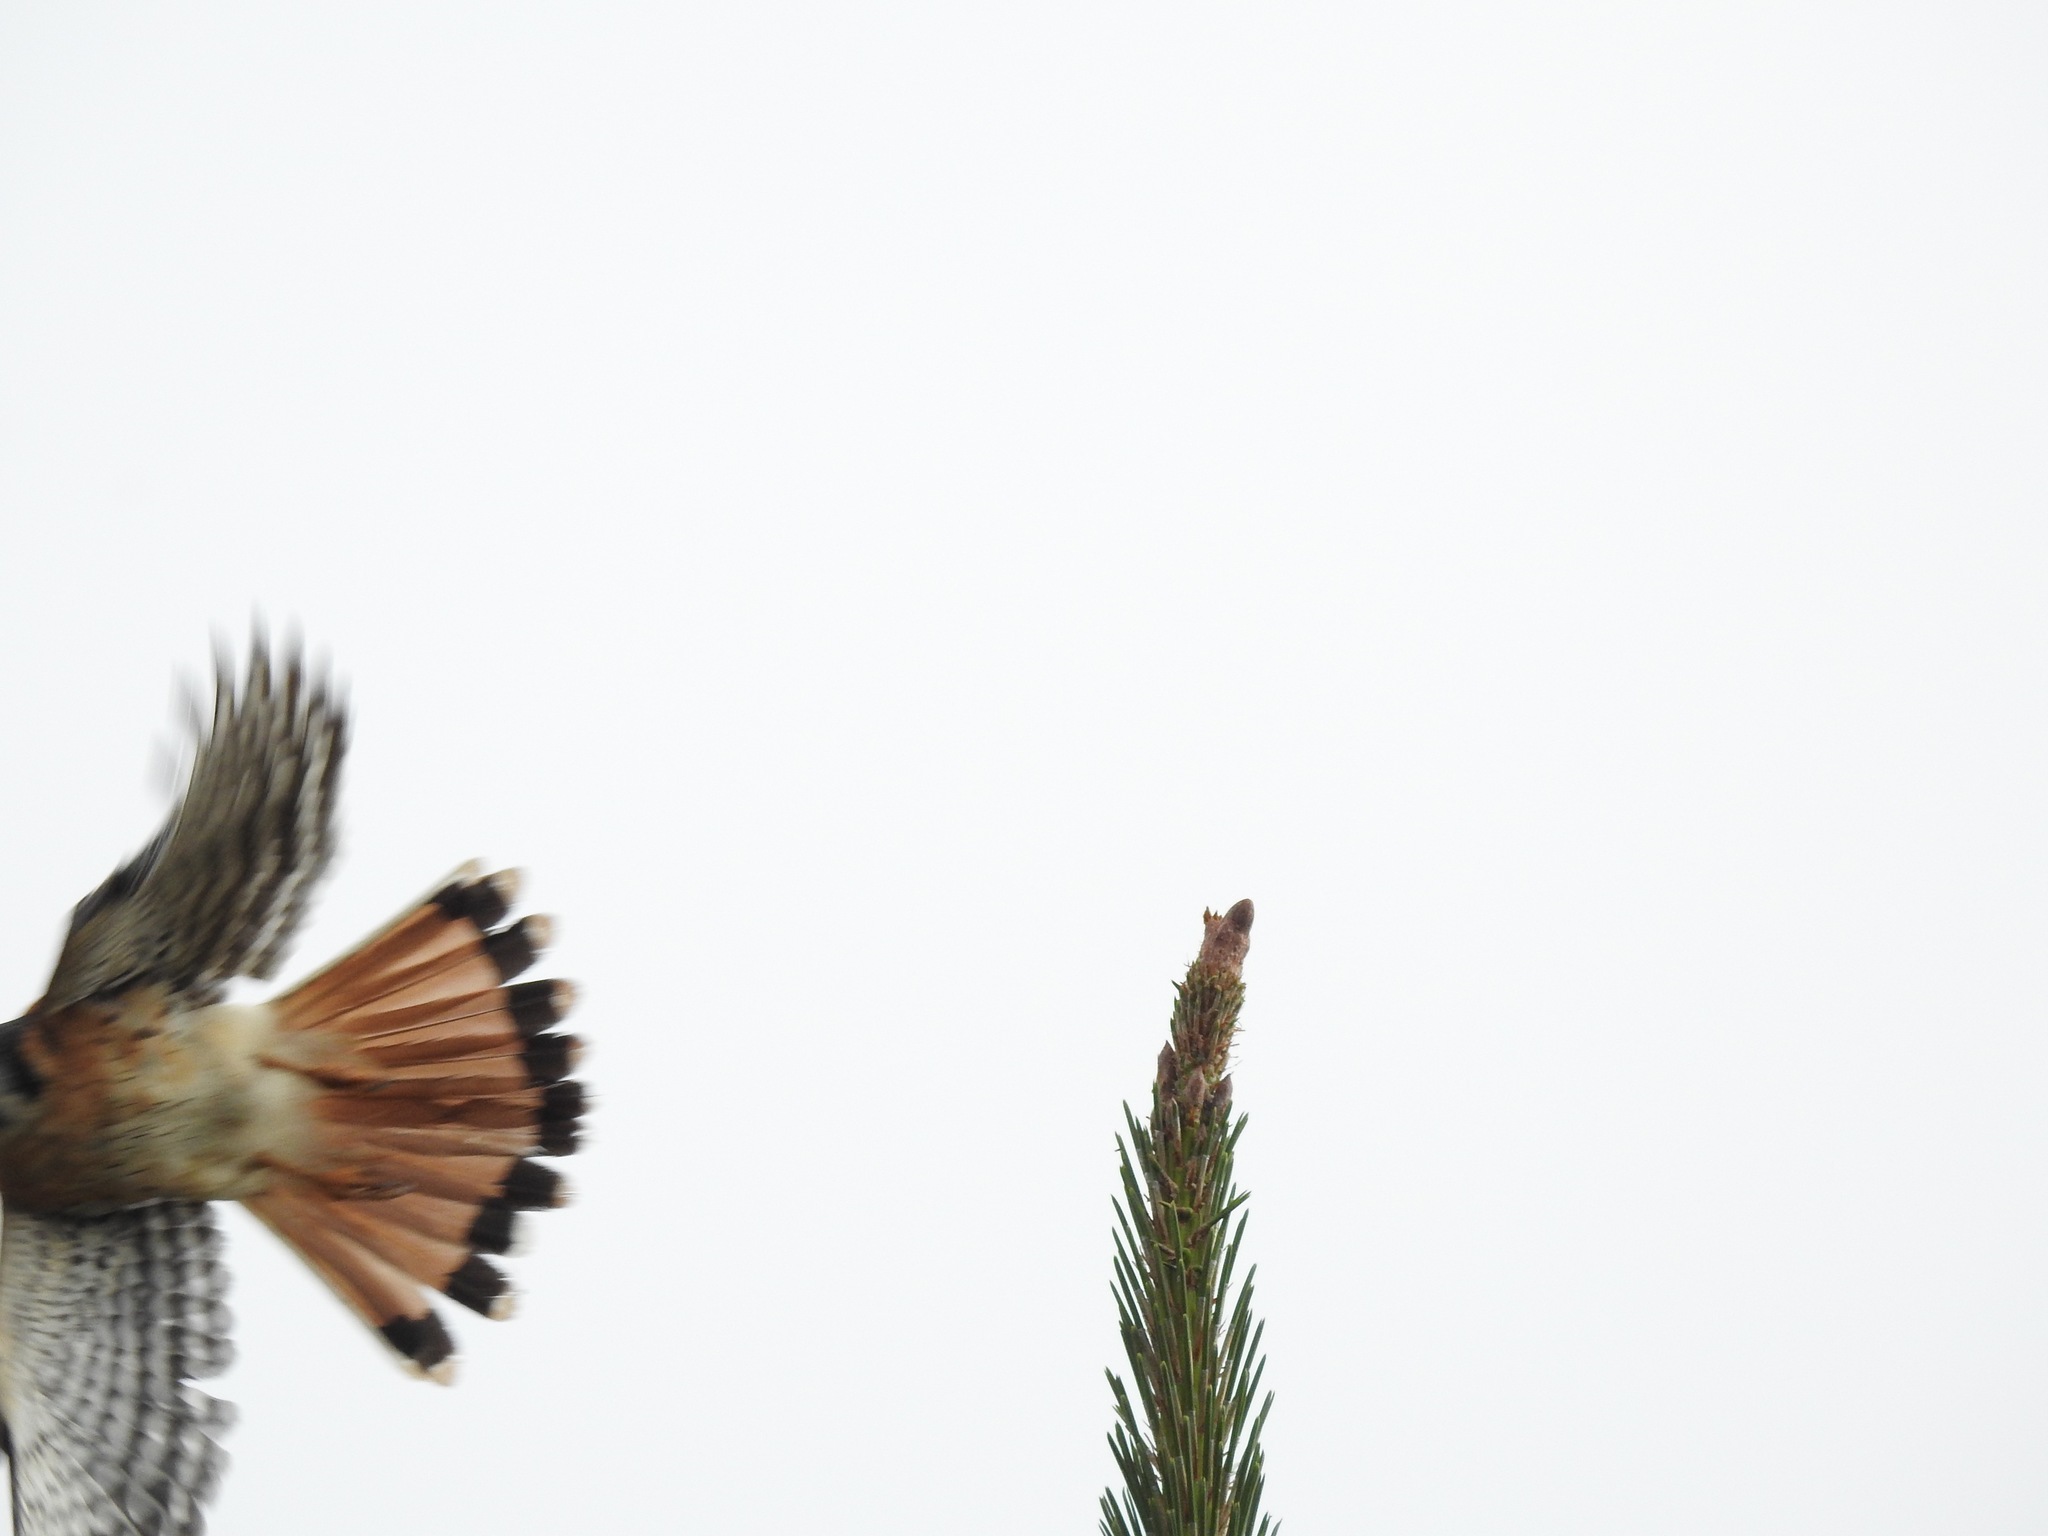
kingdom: Animalia
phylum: Chordata
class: Aves
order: Falconiformes
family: Falconidae
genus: Falco
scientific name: Falco sparverius
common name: American kestrel
